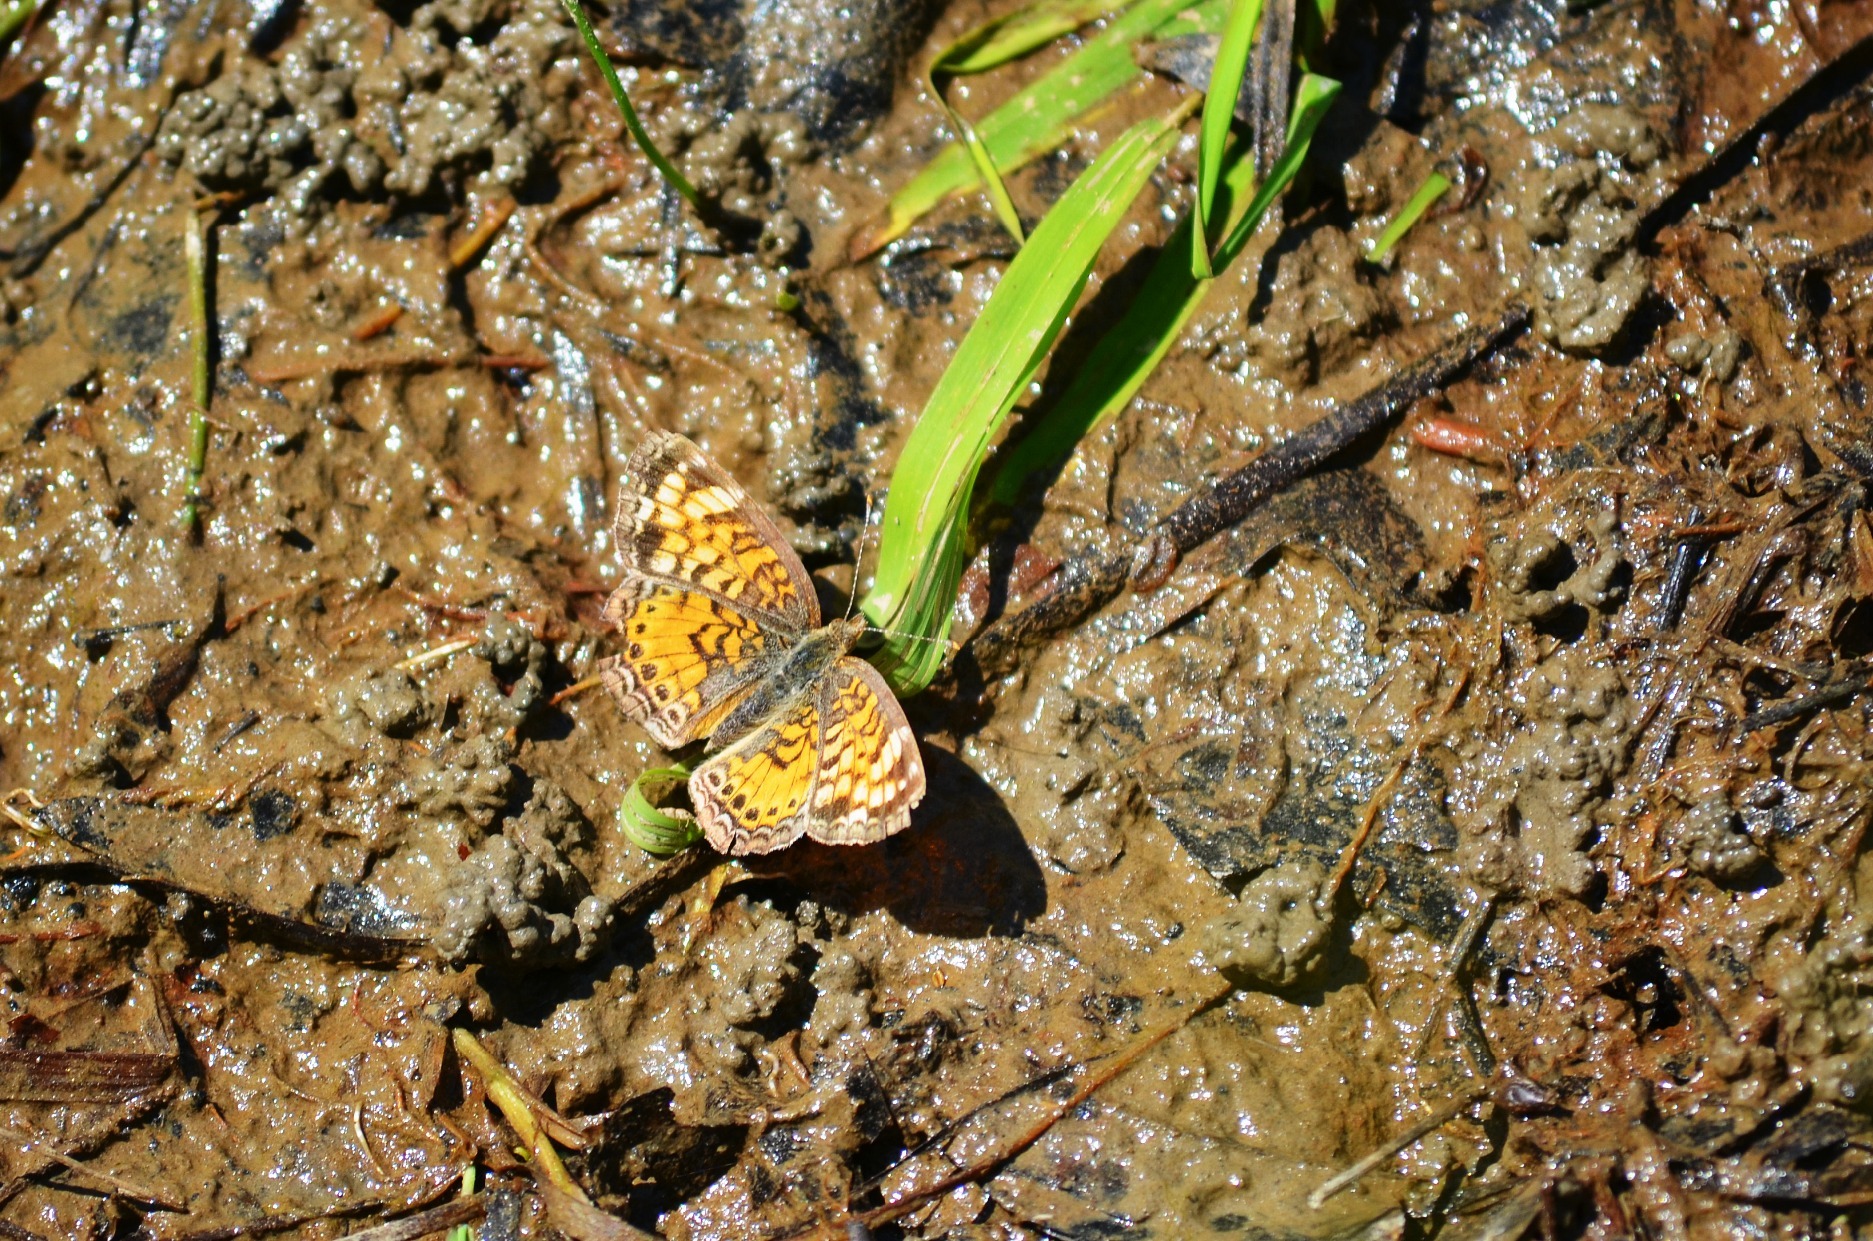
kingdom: Animalia
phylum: Arthropoda
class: Insecta
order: Lepidoptera
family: Nymphalidae
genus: Phyciodes
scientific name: Phyciodes tharos
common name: Pearl crescent
